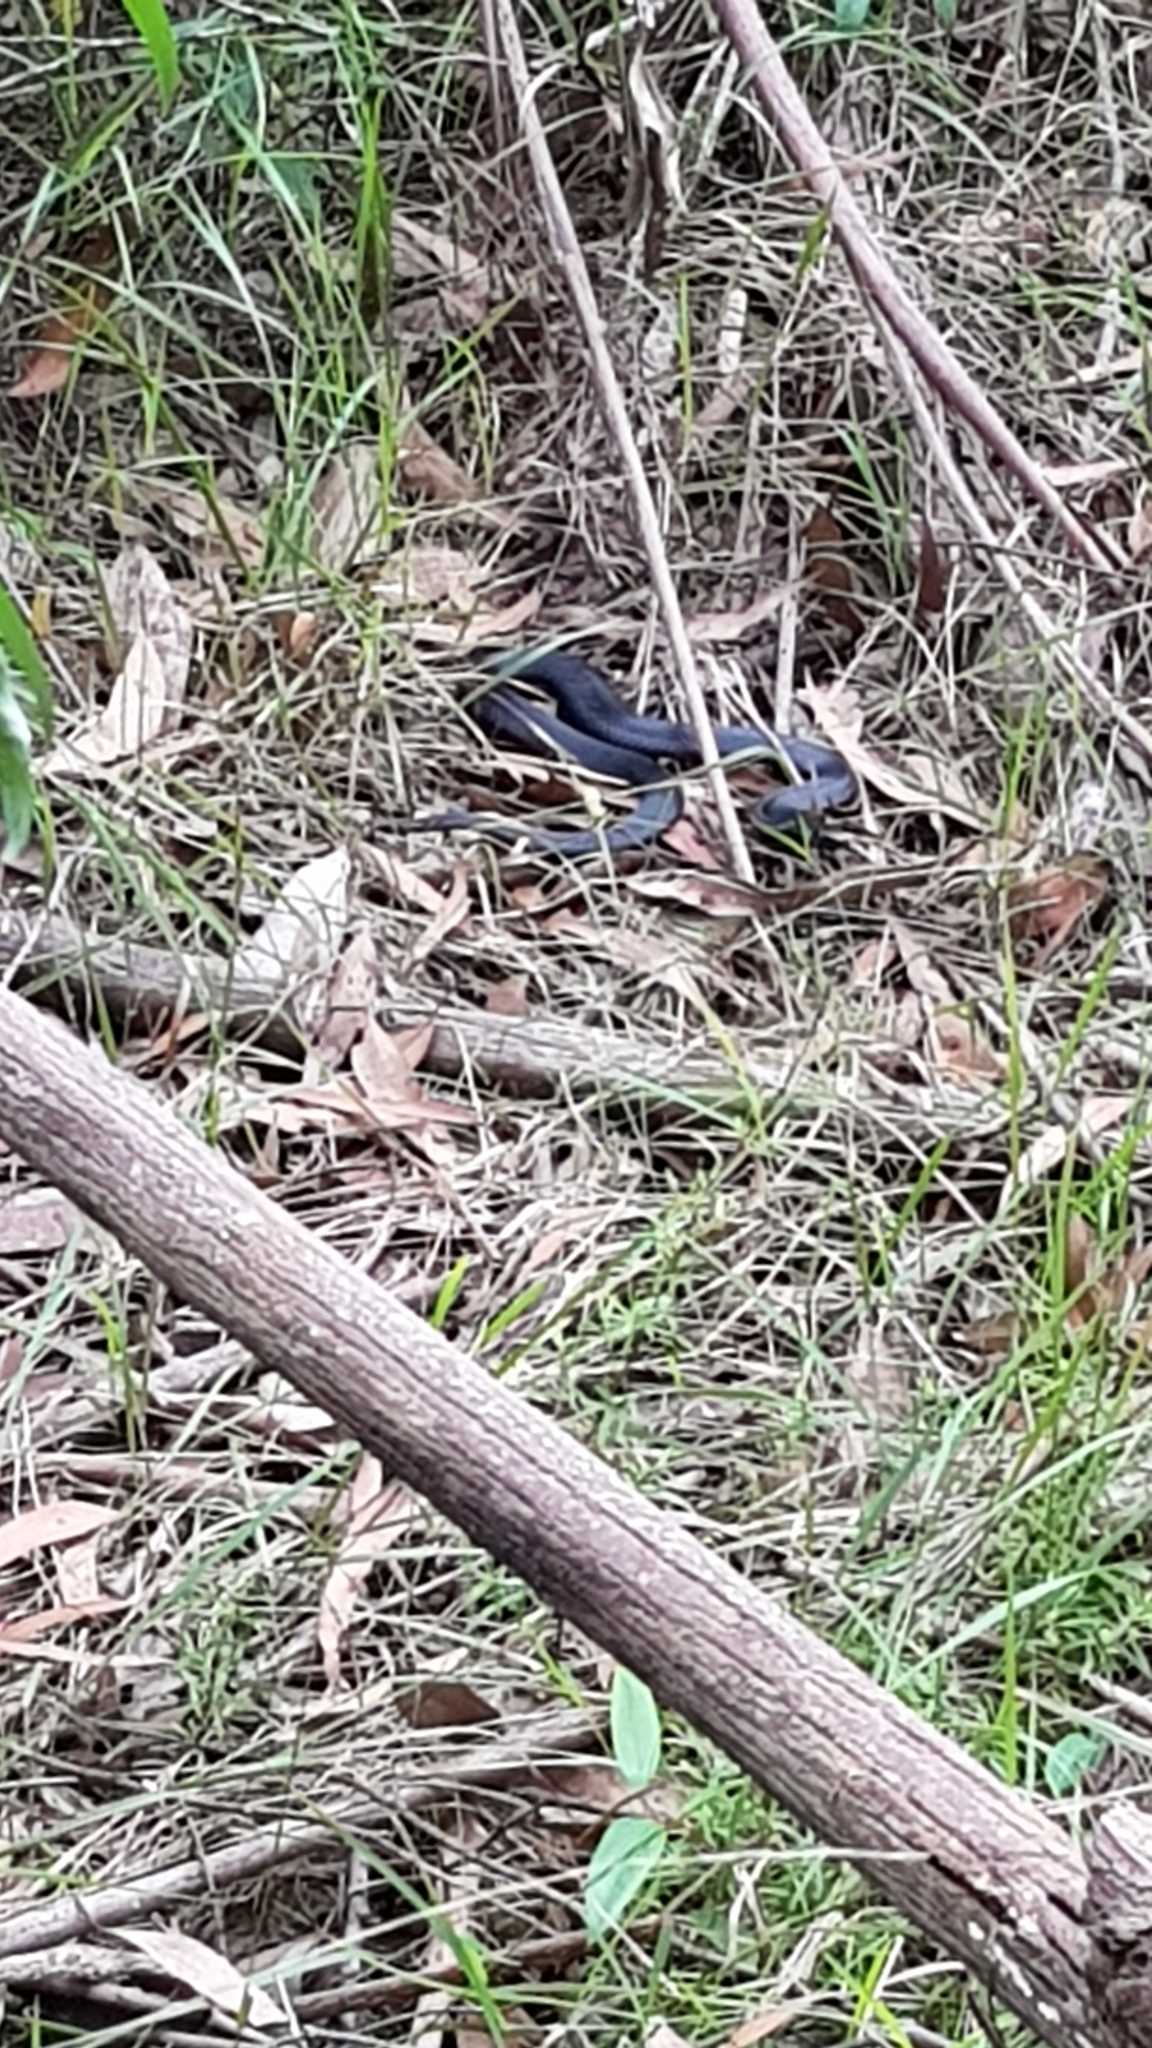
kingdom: Animalia
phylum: Chordata
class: Squamata
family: Elapidae
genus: Pseudechis
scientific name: Pseudechis porphyriacus
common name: Australian black snake
